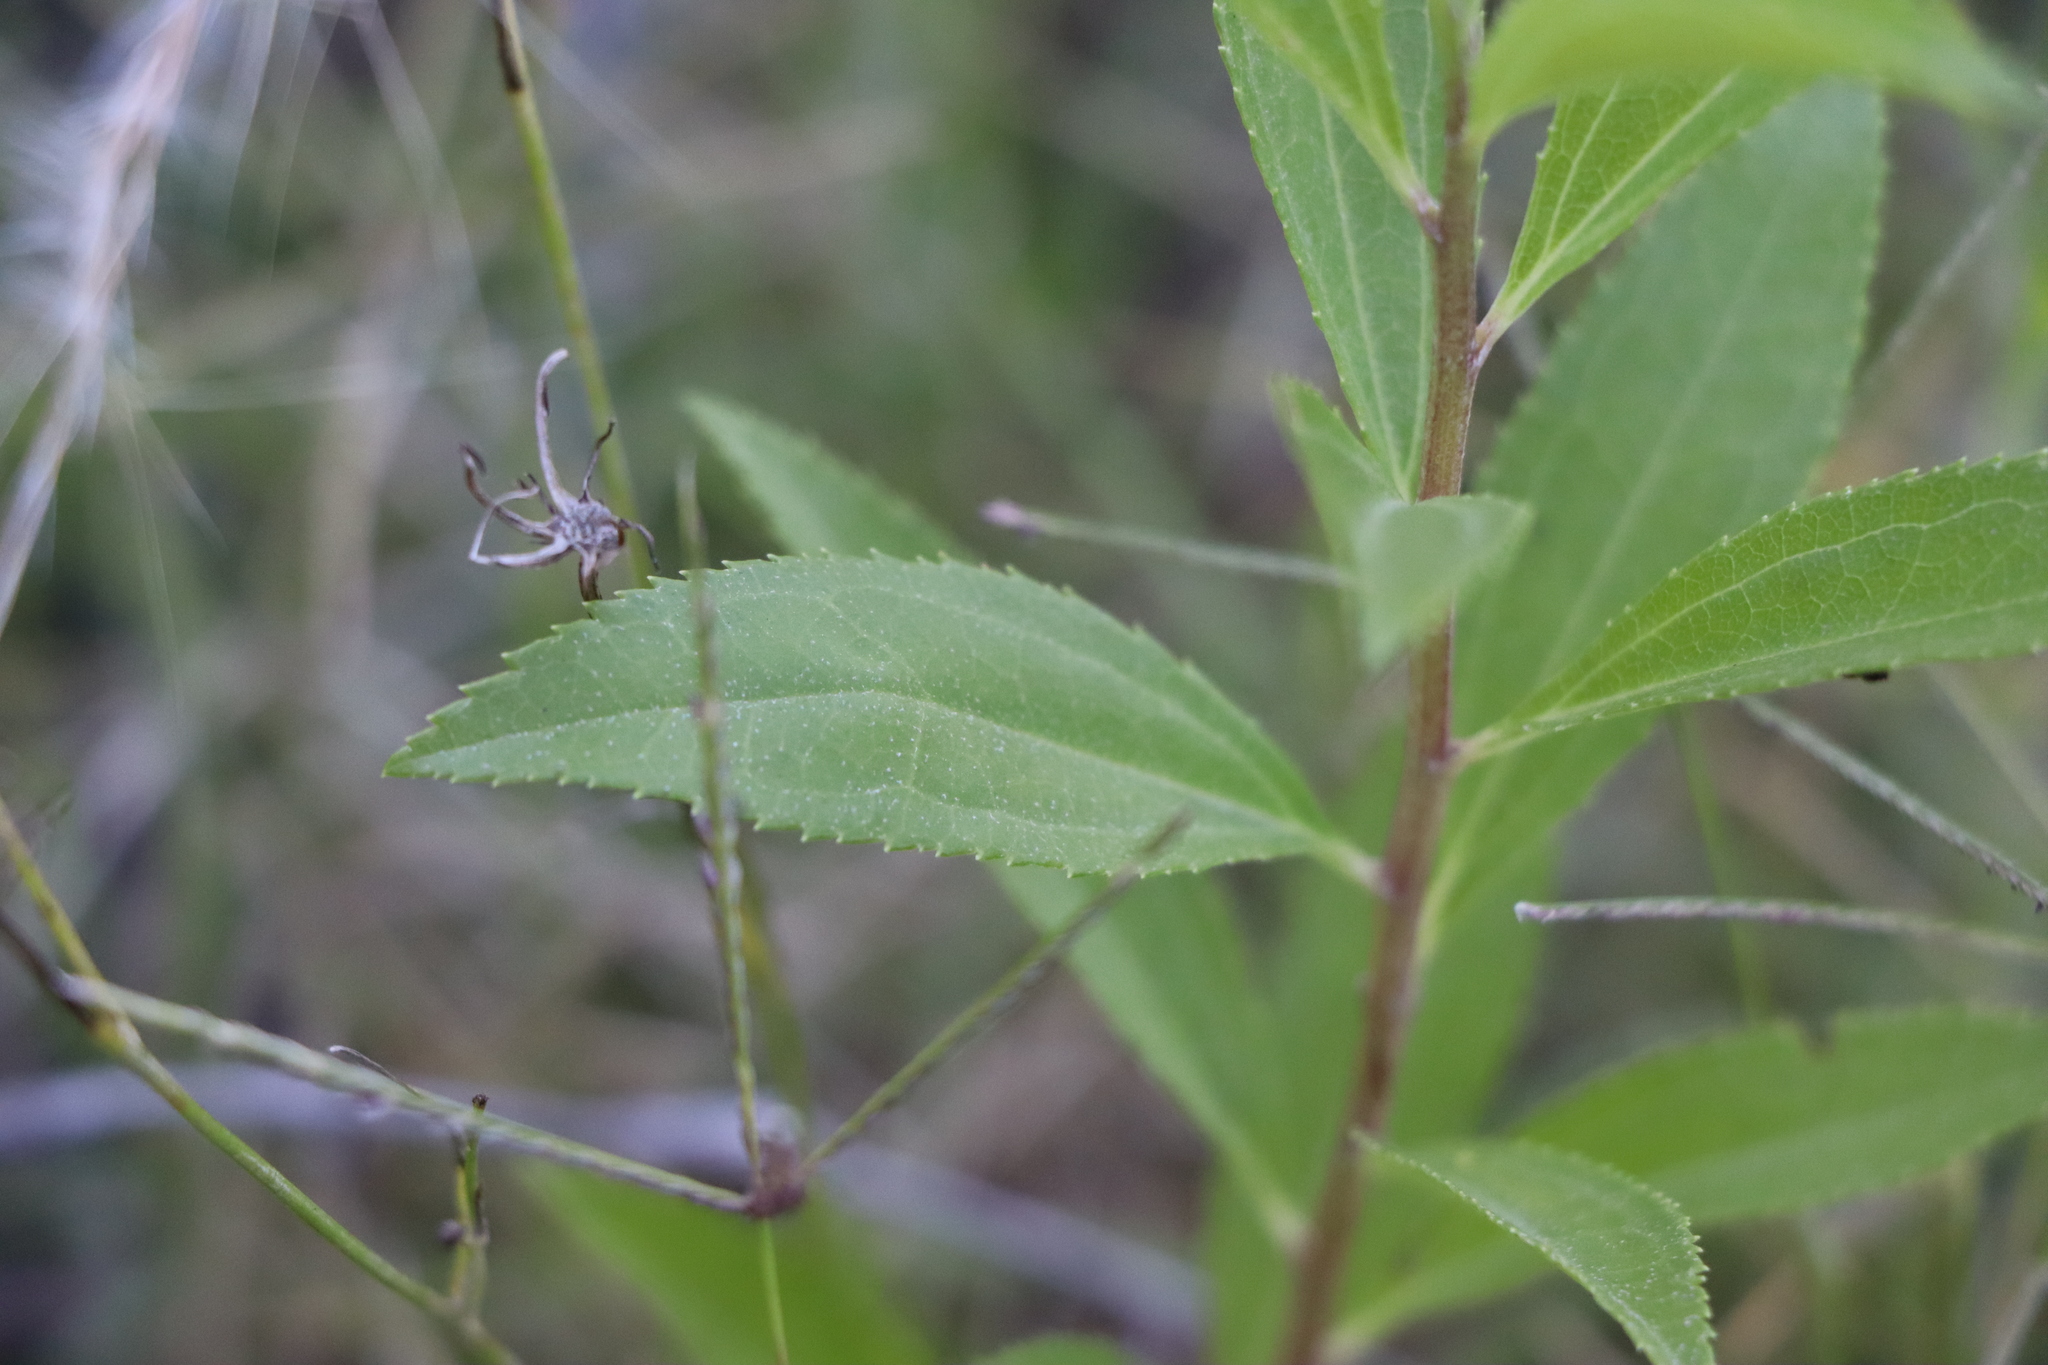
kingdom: Plantae
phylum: Tracheophyta
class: Magnoliopsida
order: Asterales
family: Asteraceae
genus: Baccharis
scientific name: Baccharis punctulata
